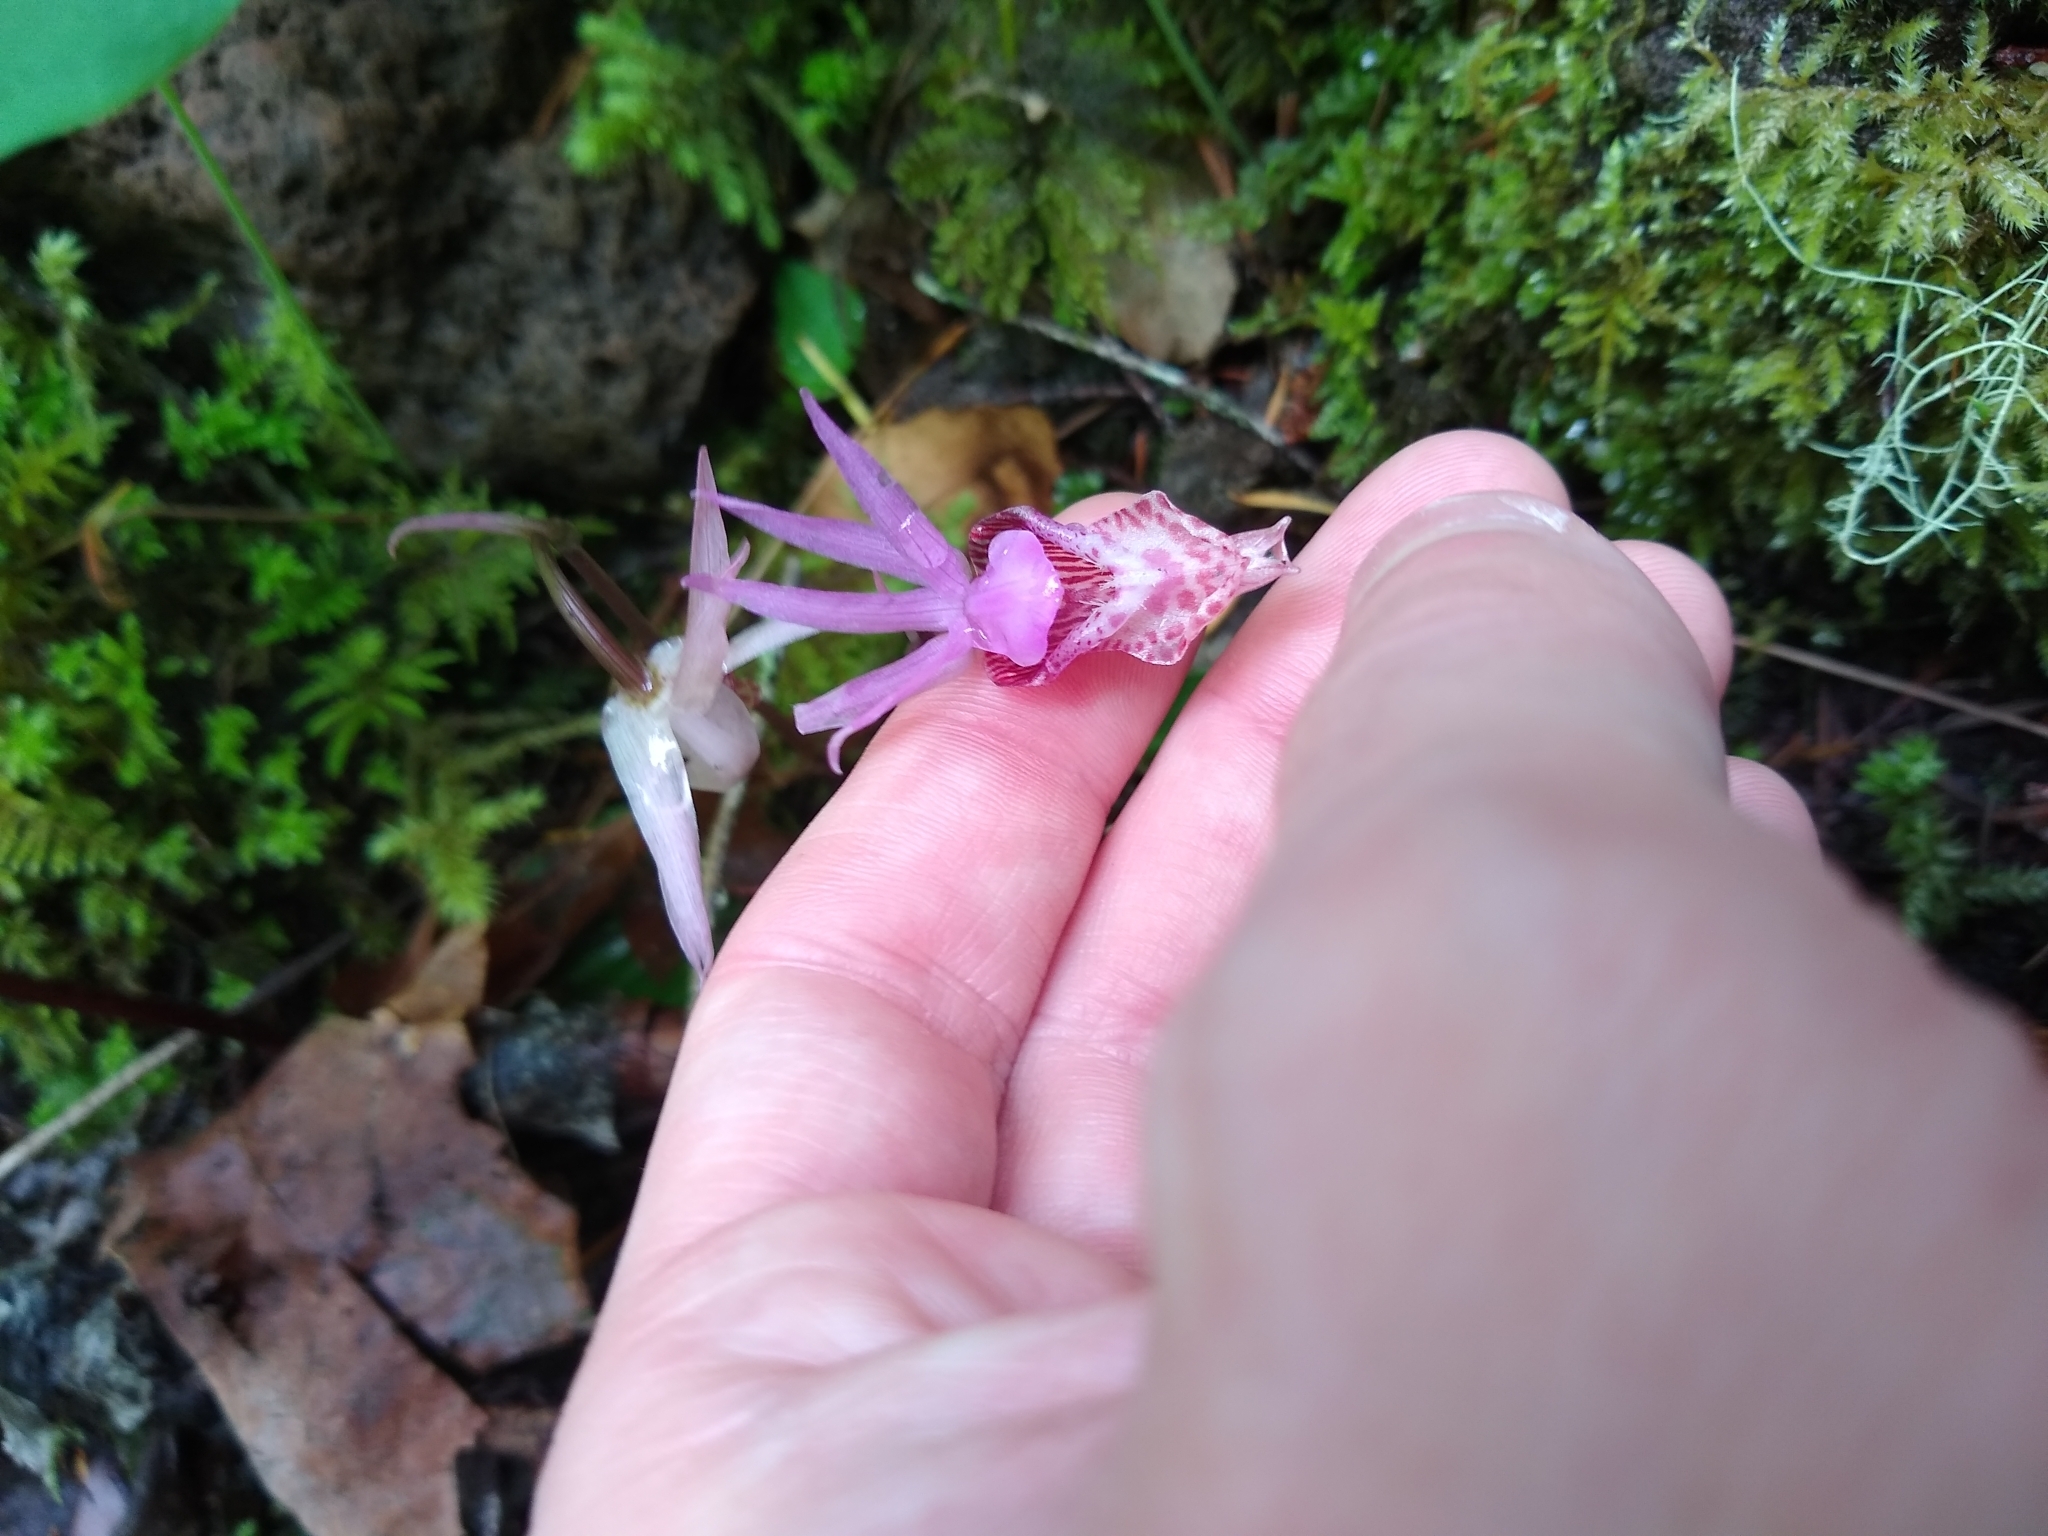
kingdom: Plantae
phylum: Tracheophyta
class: Liliopsida
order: Asparagales
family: Orchidaceae
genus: Calypso
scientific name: Calypso bulbosa
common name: Calypso
